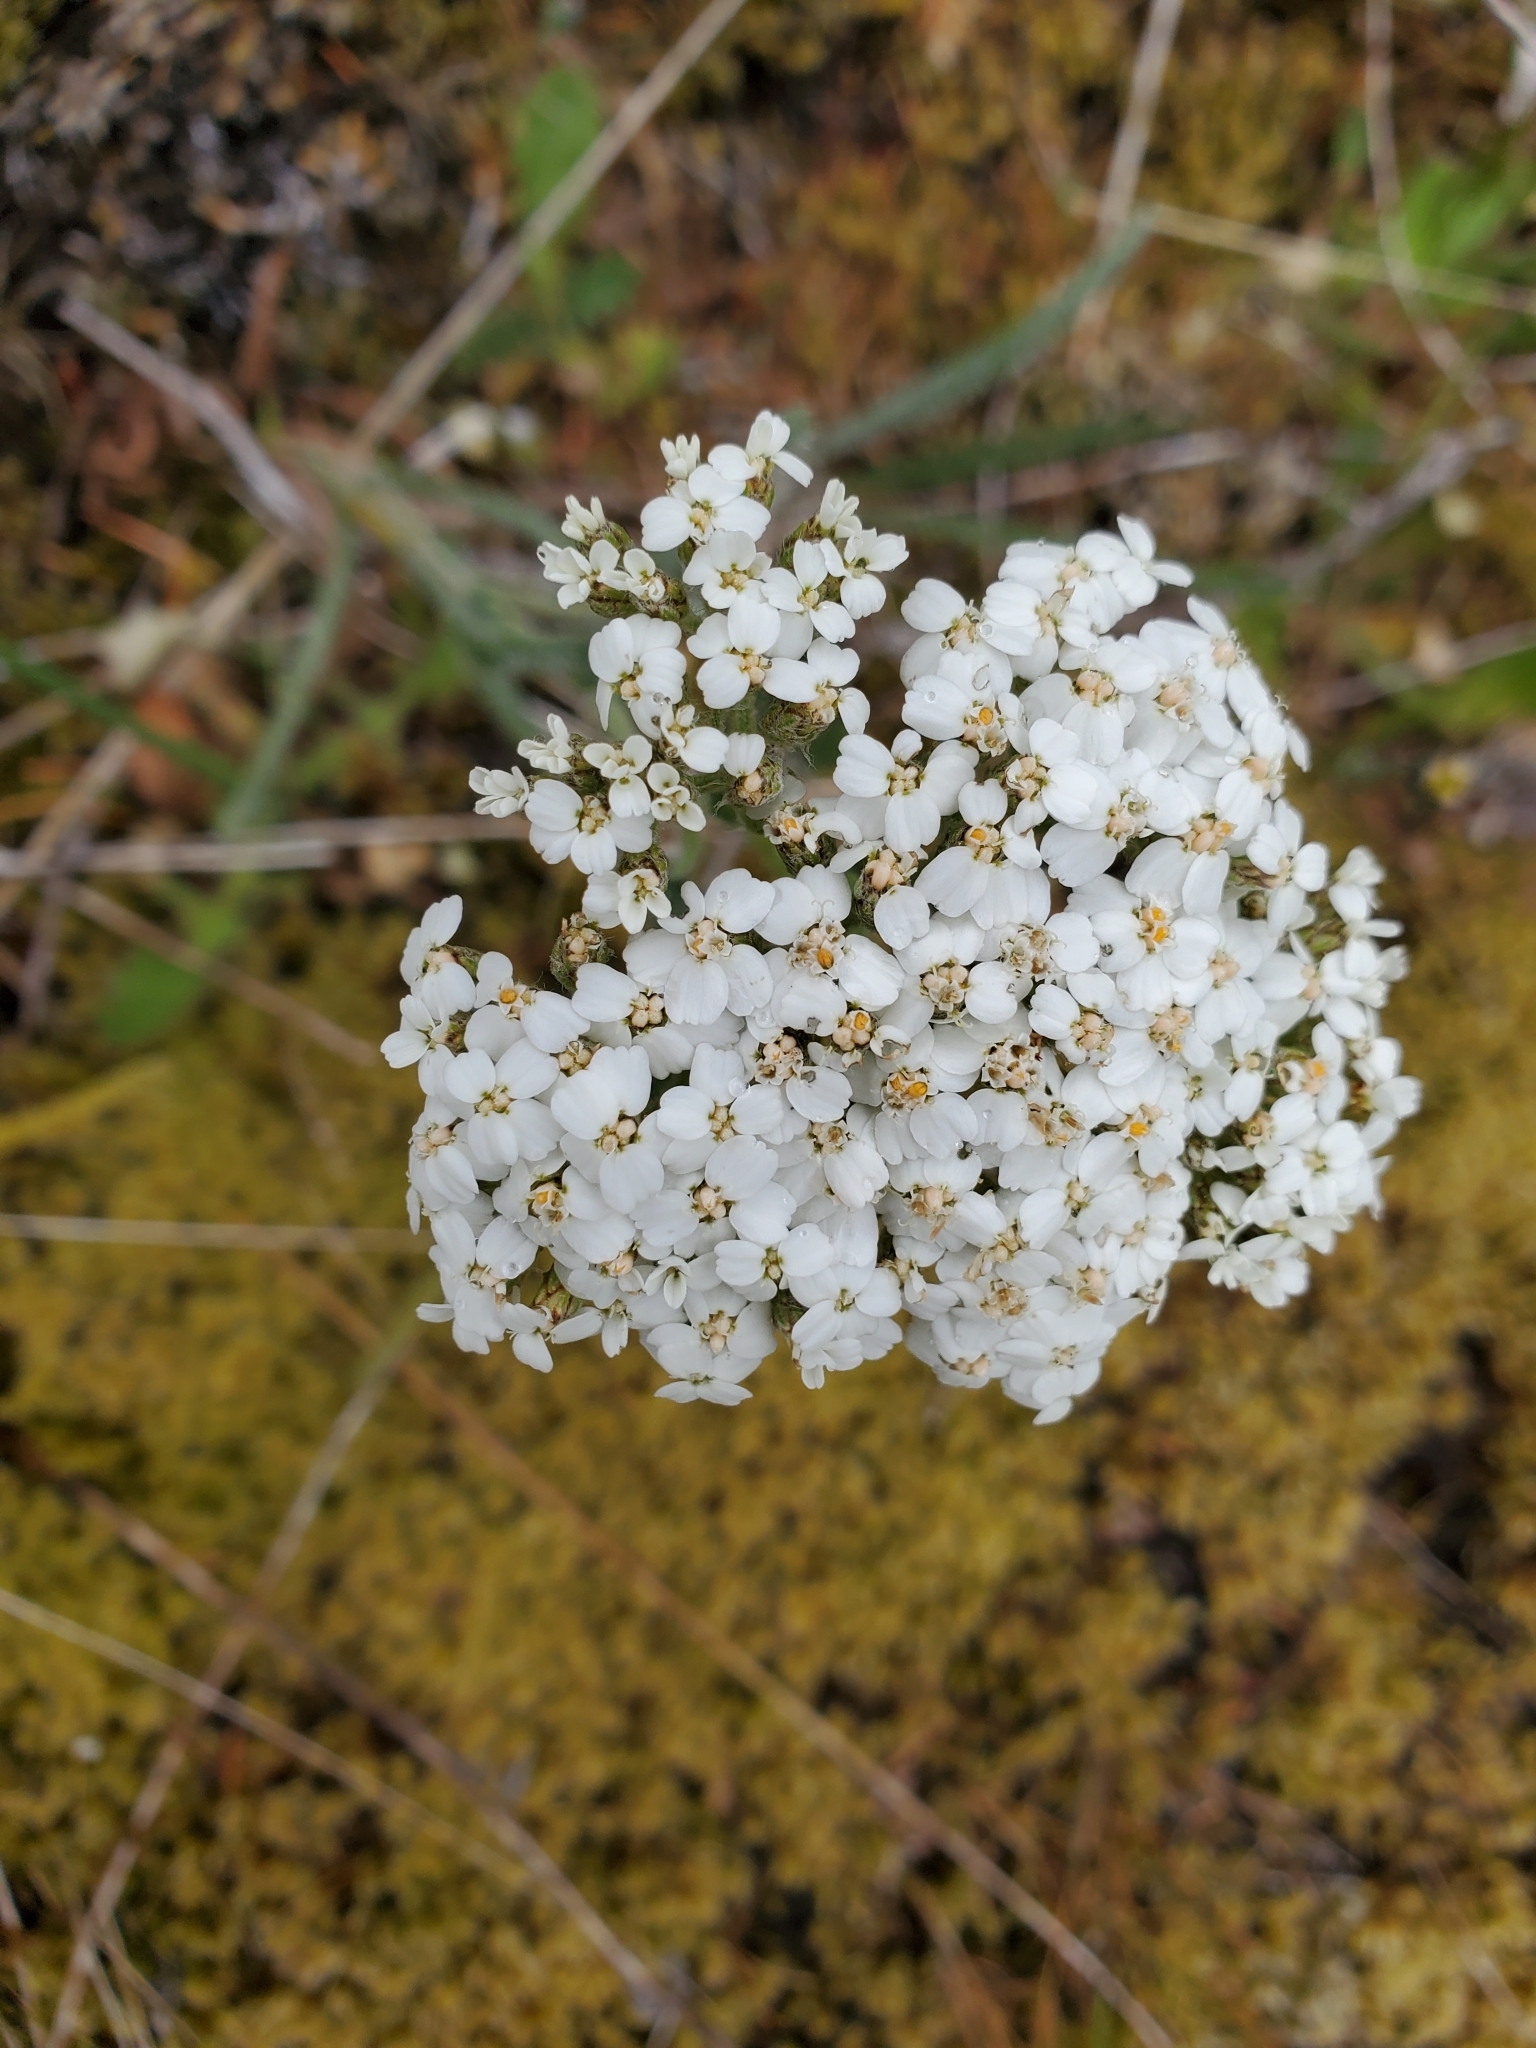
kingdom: Plantae
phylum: Tracheophyta
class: Magnoliopsida
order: Asterales
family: Asteraceae
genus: Achillea
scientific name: Achillea millefolium
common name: Yarrow
